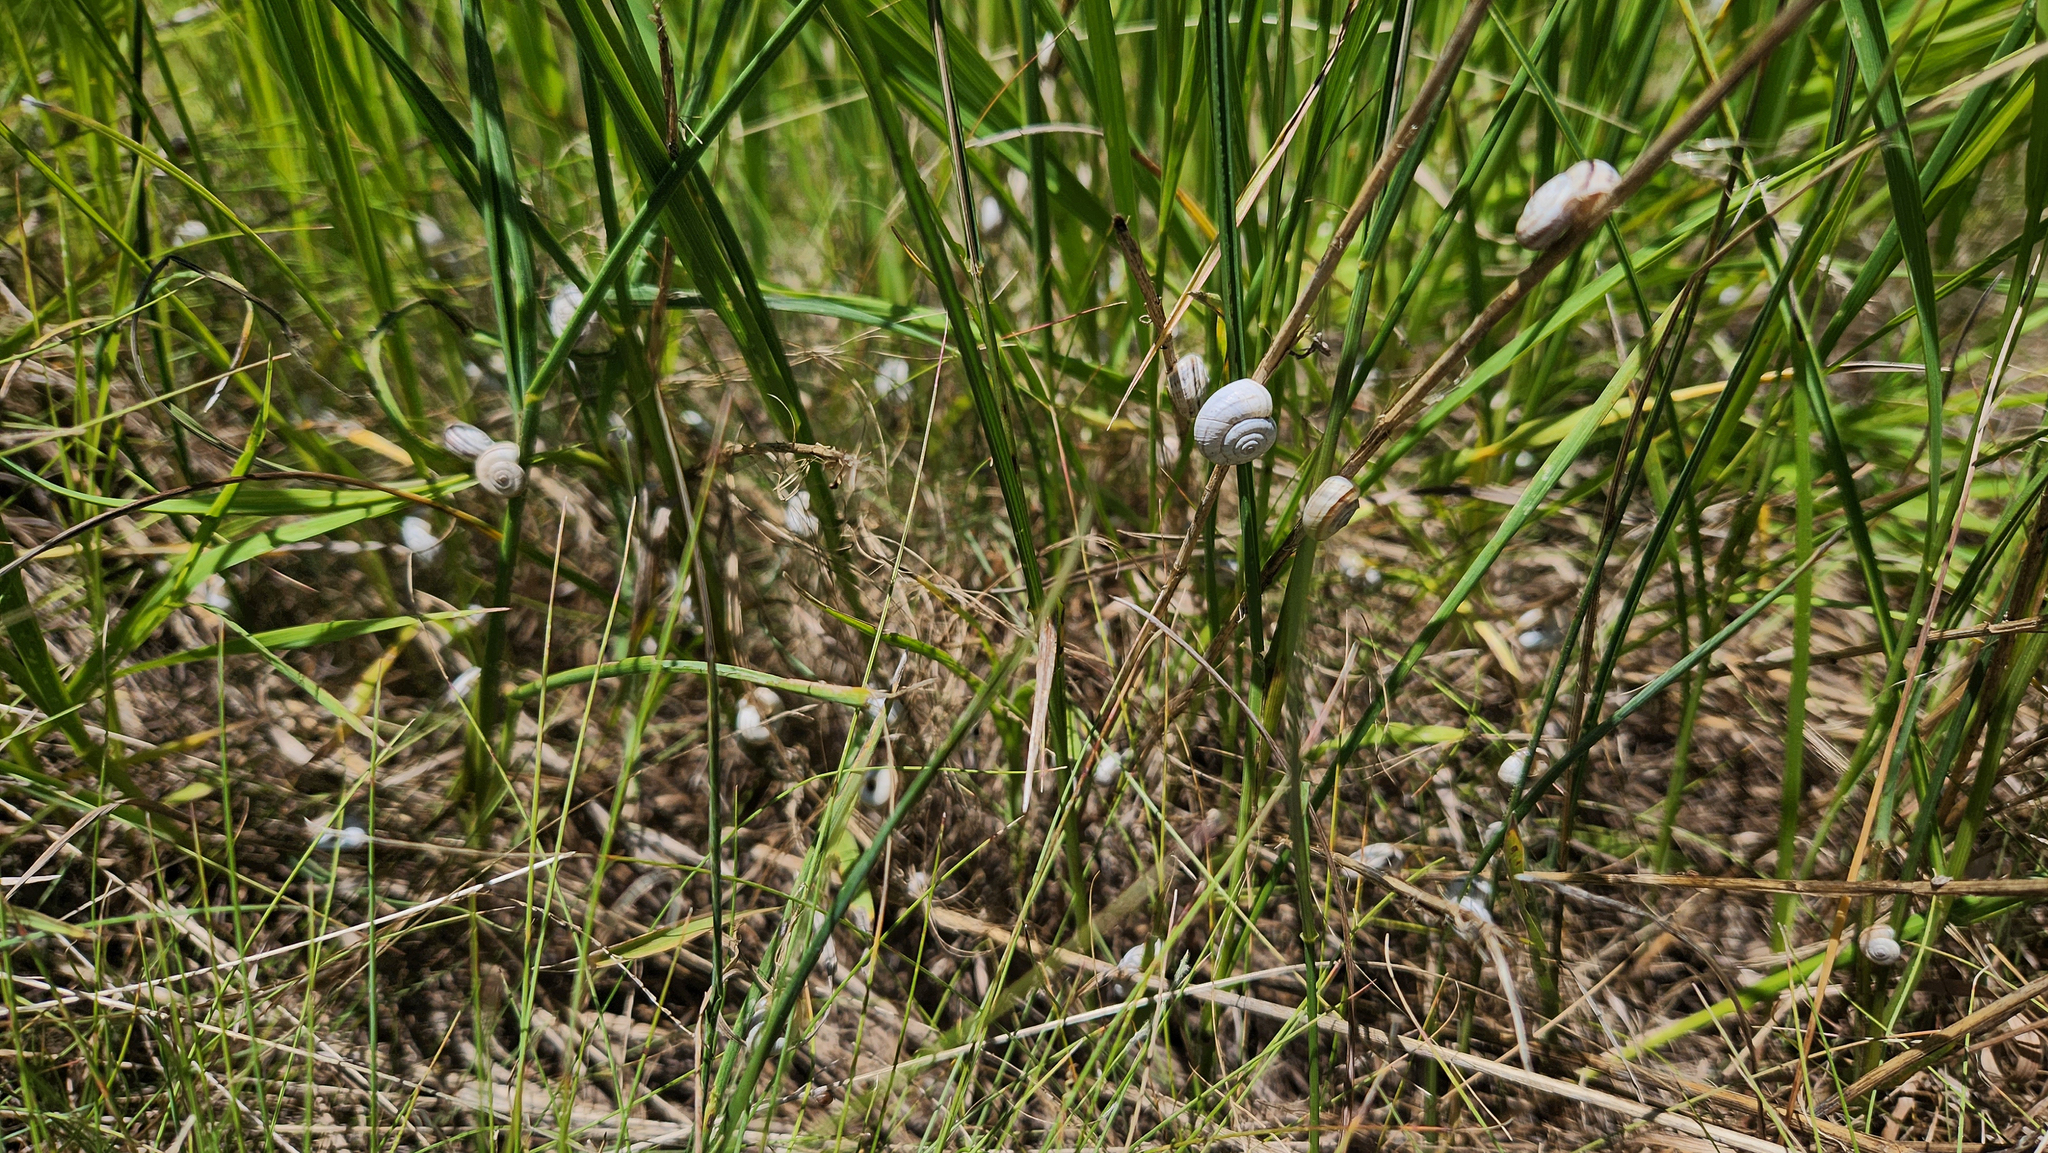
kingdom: Animalia
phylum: Mollusca
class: Gastropoda
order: Stylommatophora
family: Geomitridae
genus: Xerolenta
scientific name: Xerolenta obvia
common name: White heath snail
